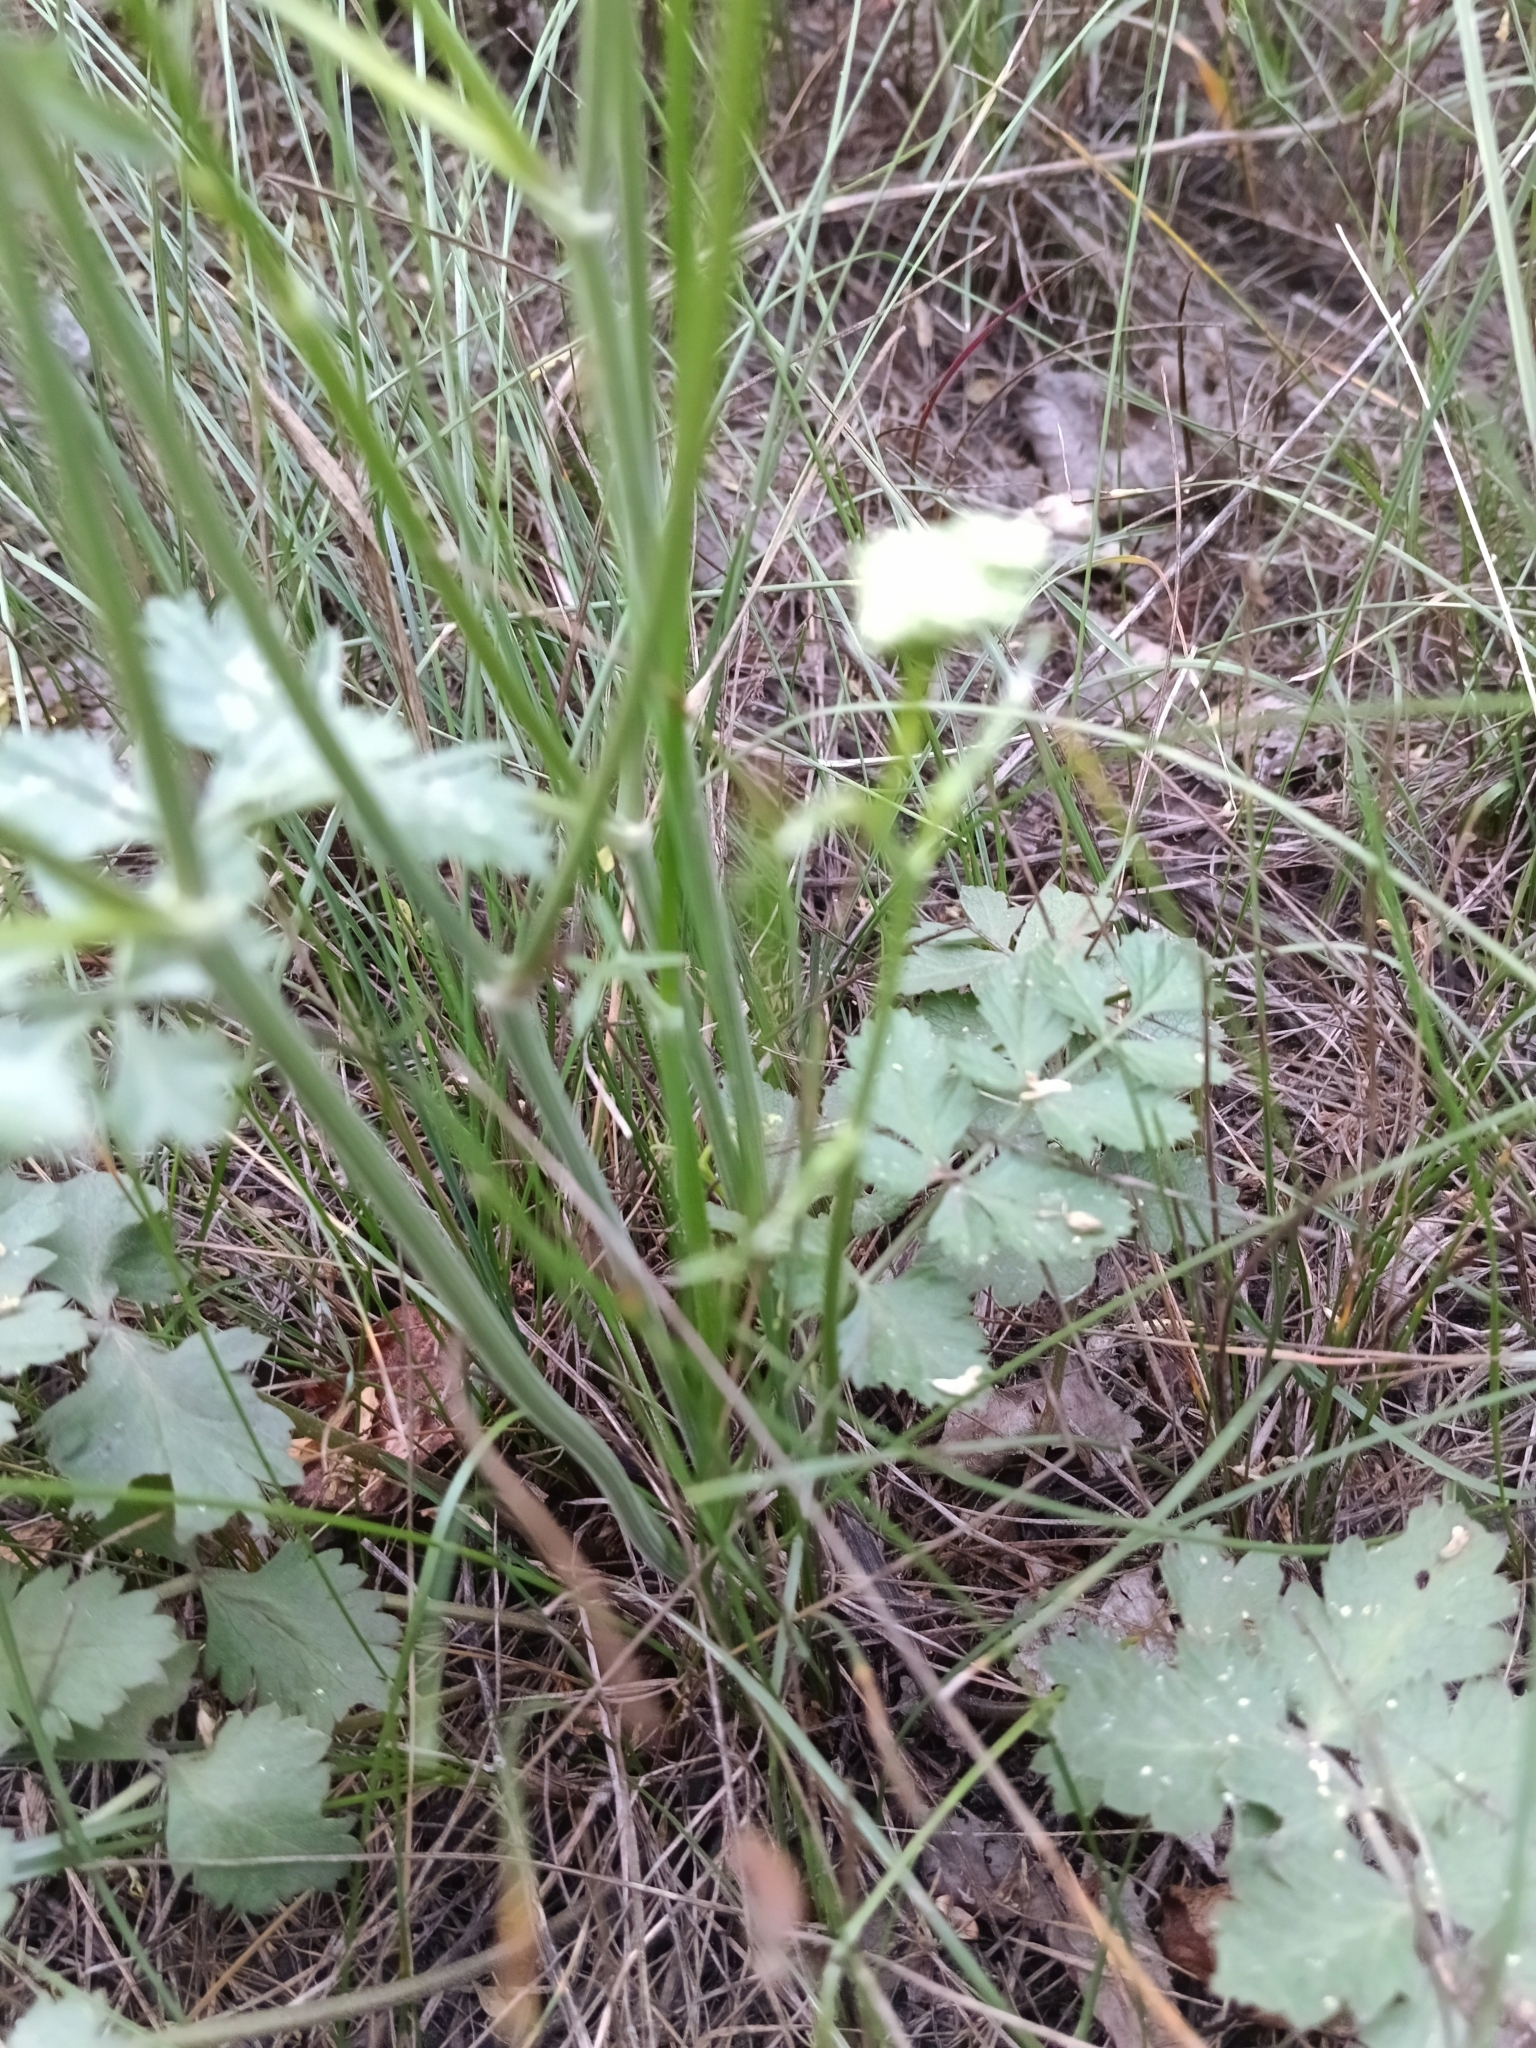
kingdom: Plantae
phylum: Tracheophyta
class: Magnoliopsida
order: Apiales
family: Apiaceae
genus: Pimpinella
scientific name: Pimpinella saxifraga
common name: Burnet-saxifrage
